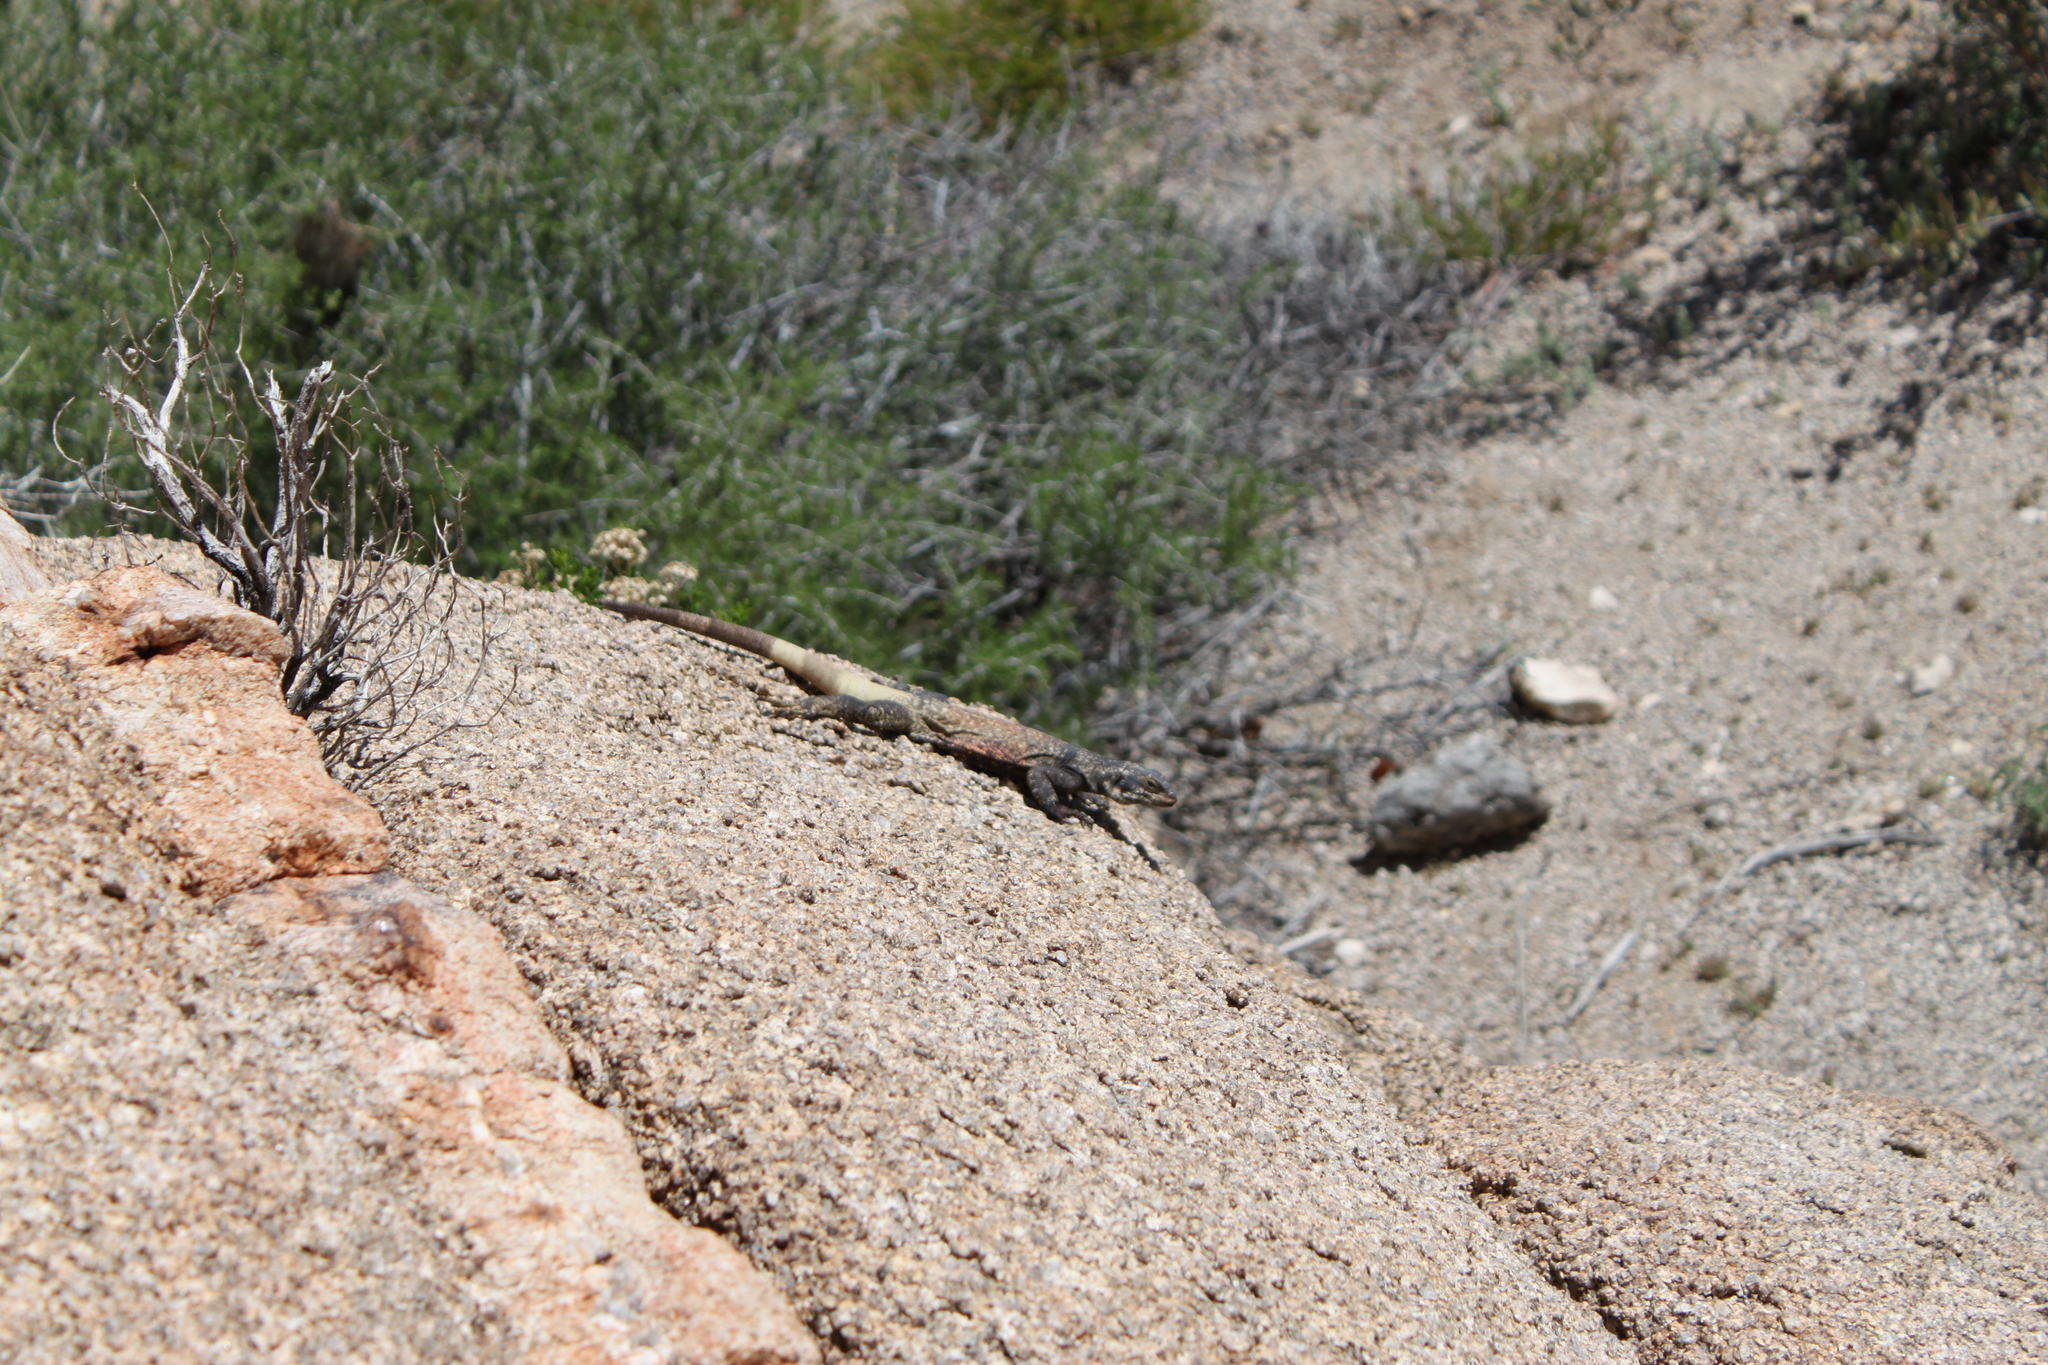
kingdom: Animalia
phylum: Chordata
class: Squamata
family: Iguanidae
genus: Sauromalus
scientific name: Sauromalus ater
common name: Northern chuckwalla
